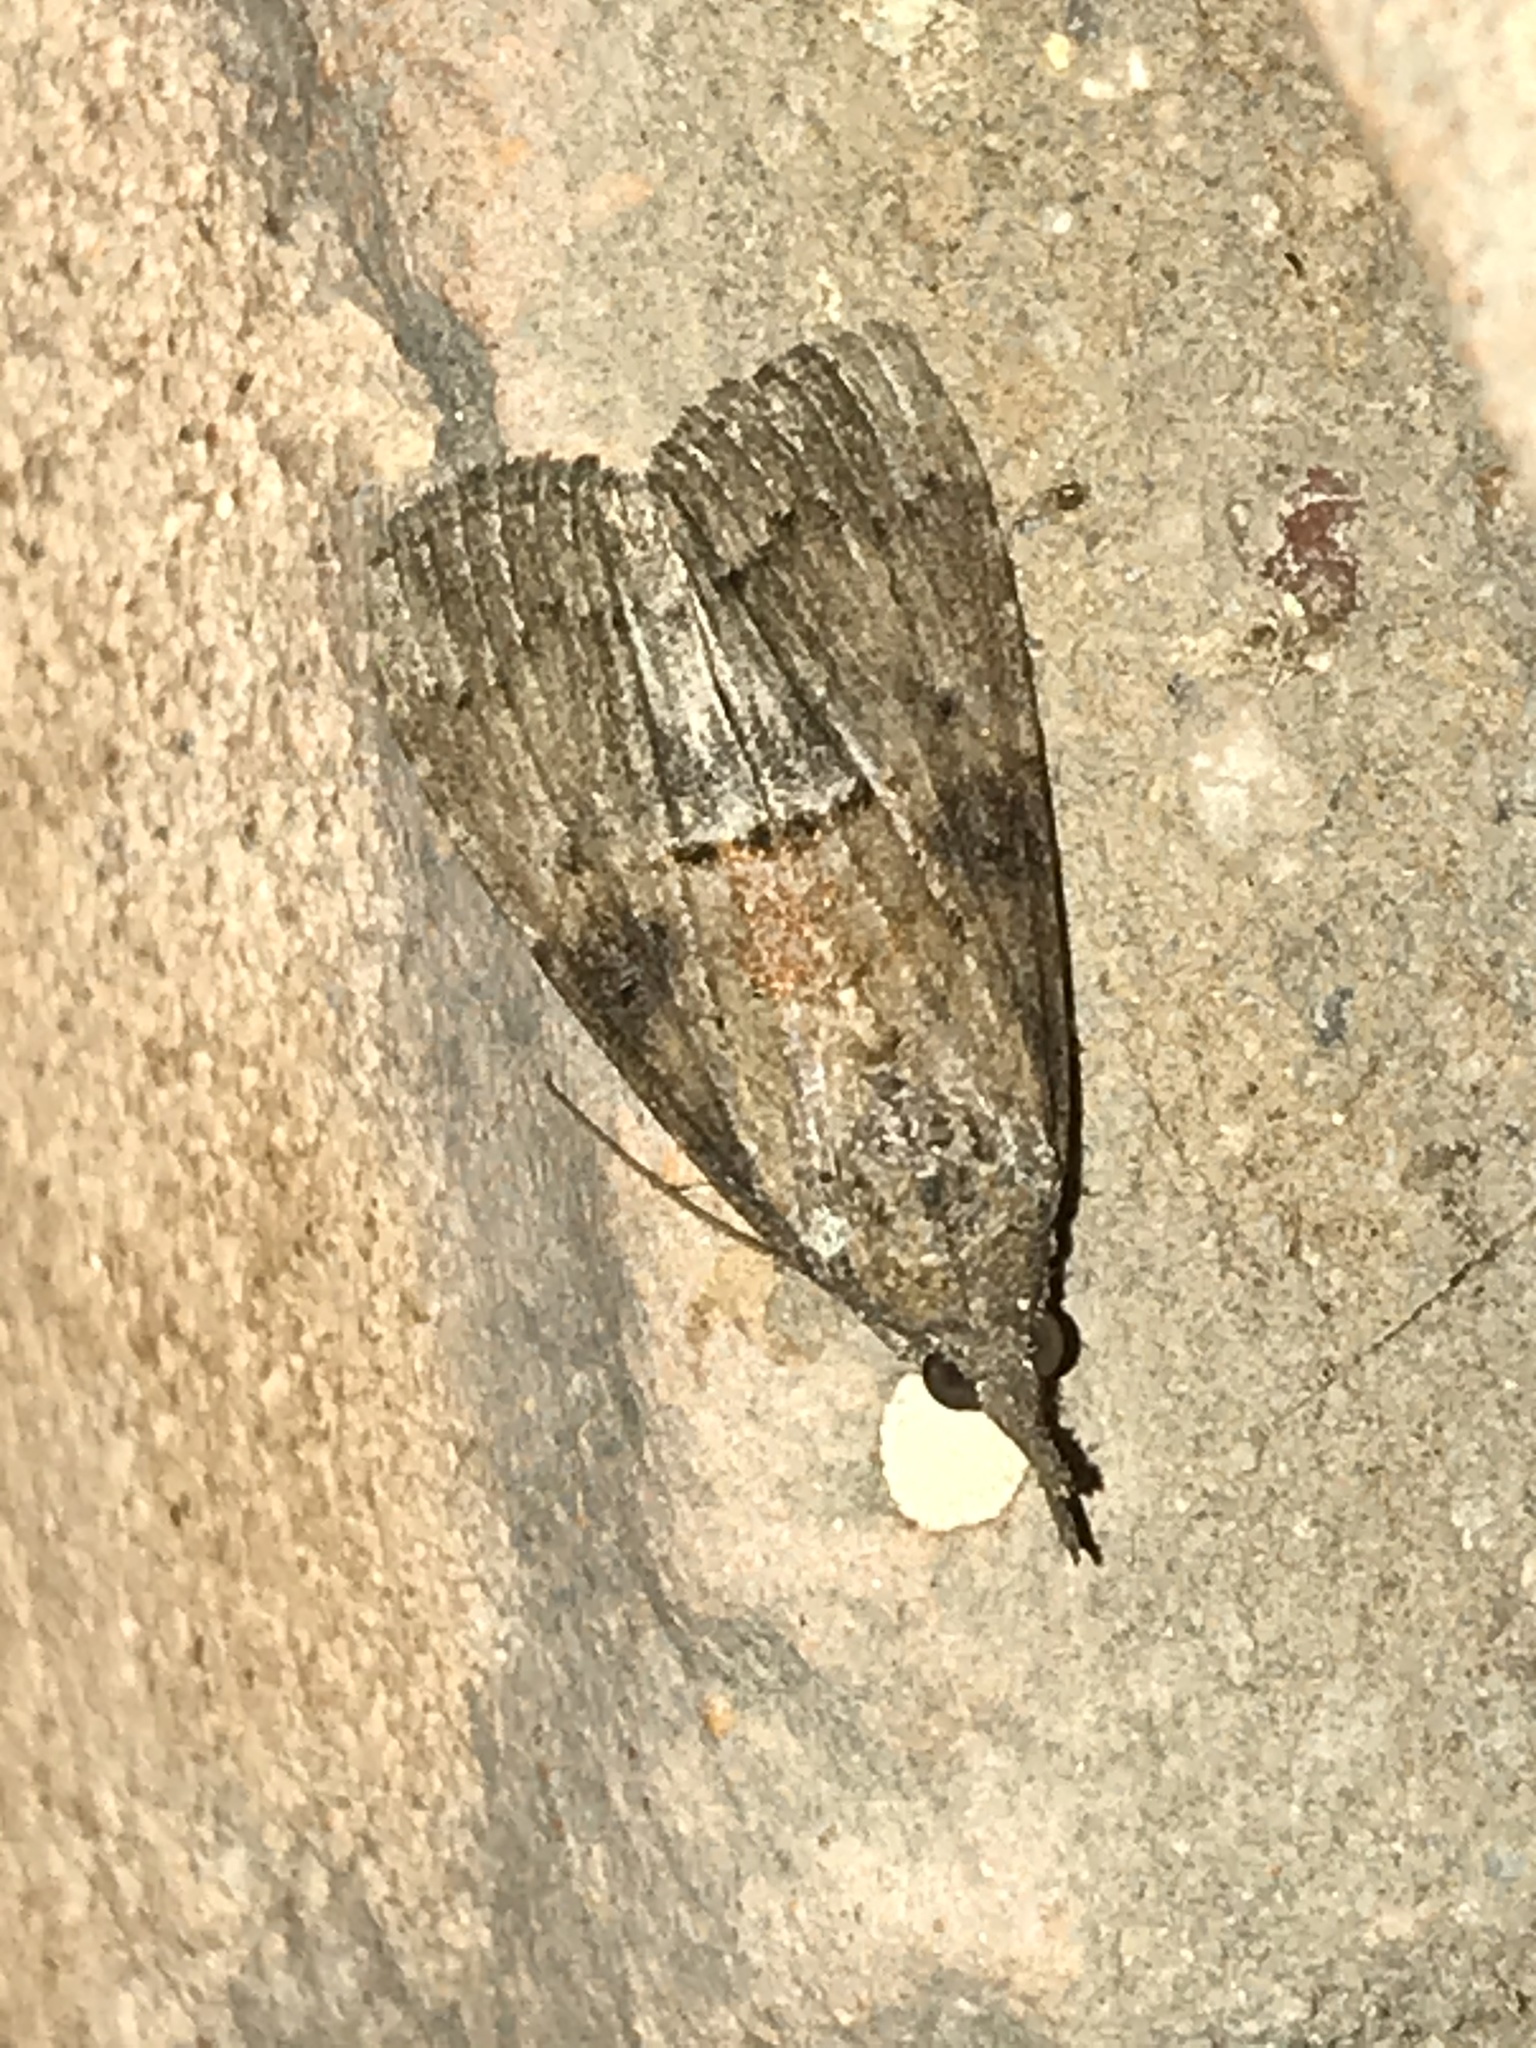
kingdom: Animalia
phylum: Arthropoda
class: Insecta
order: Lepidoptera
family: Erebidae
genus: Hypena
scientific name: Hypena scabra
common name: Green cloverworm
